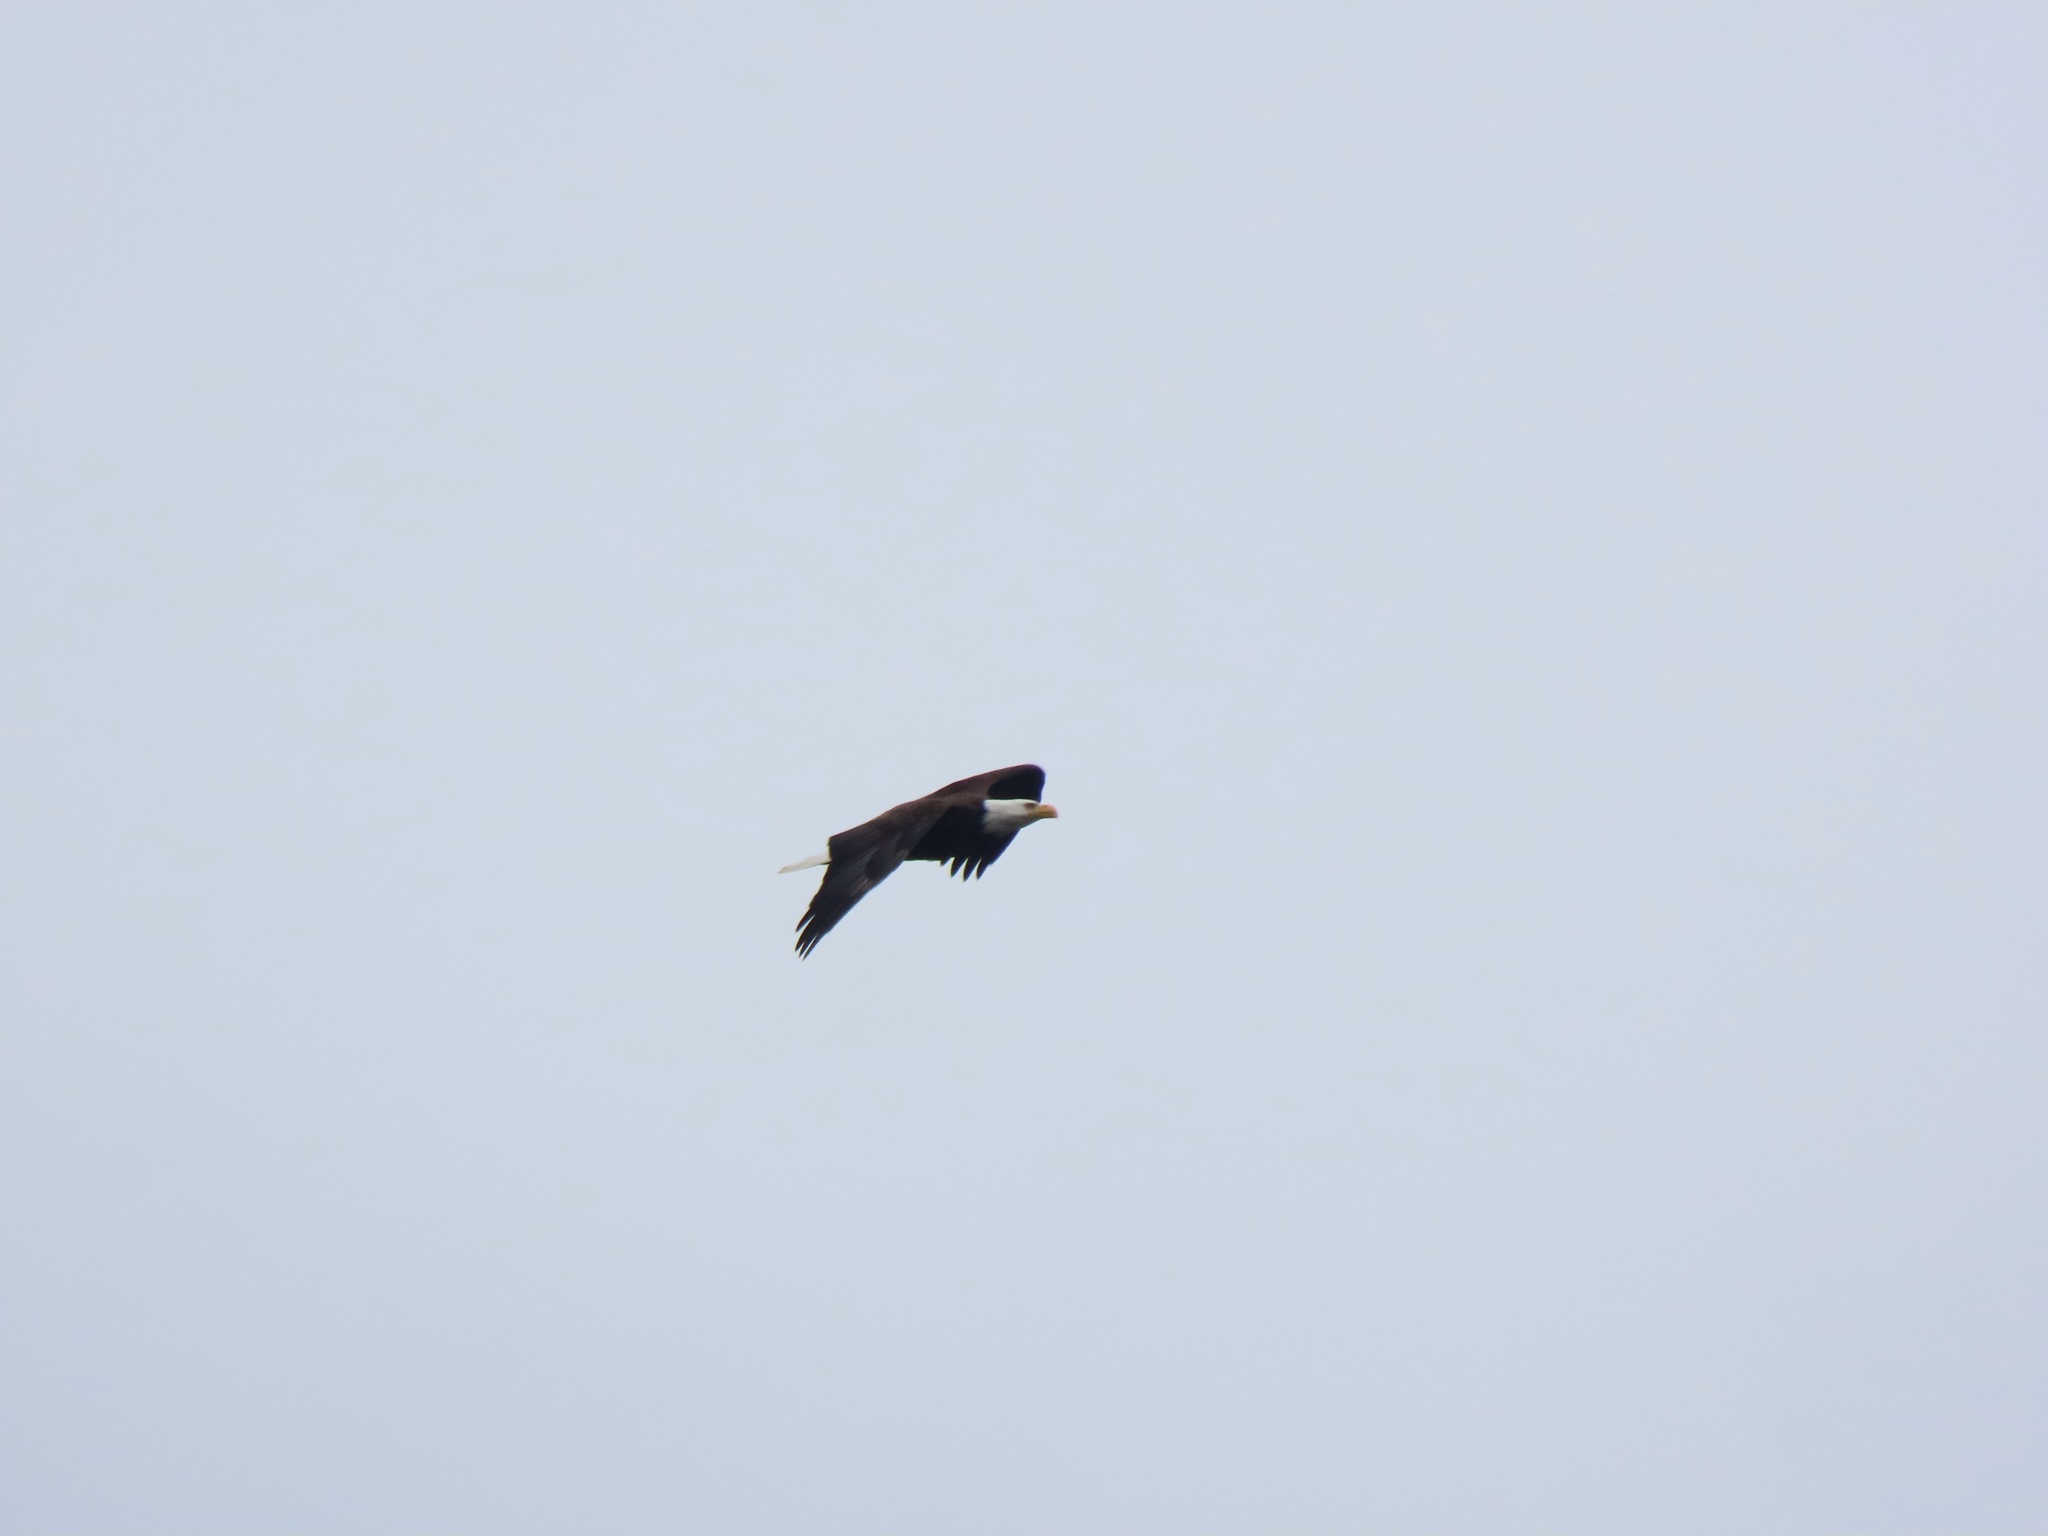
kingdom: Animalia
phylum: Chordata
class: Aves
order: Accipitriformes
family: Accipitridae
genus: Haliaeetus
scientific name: Haliaeetus leucocephalus
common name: Bald eagle
